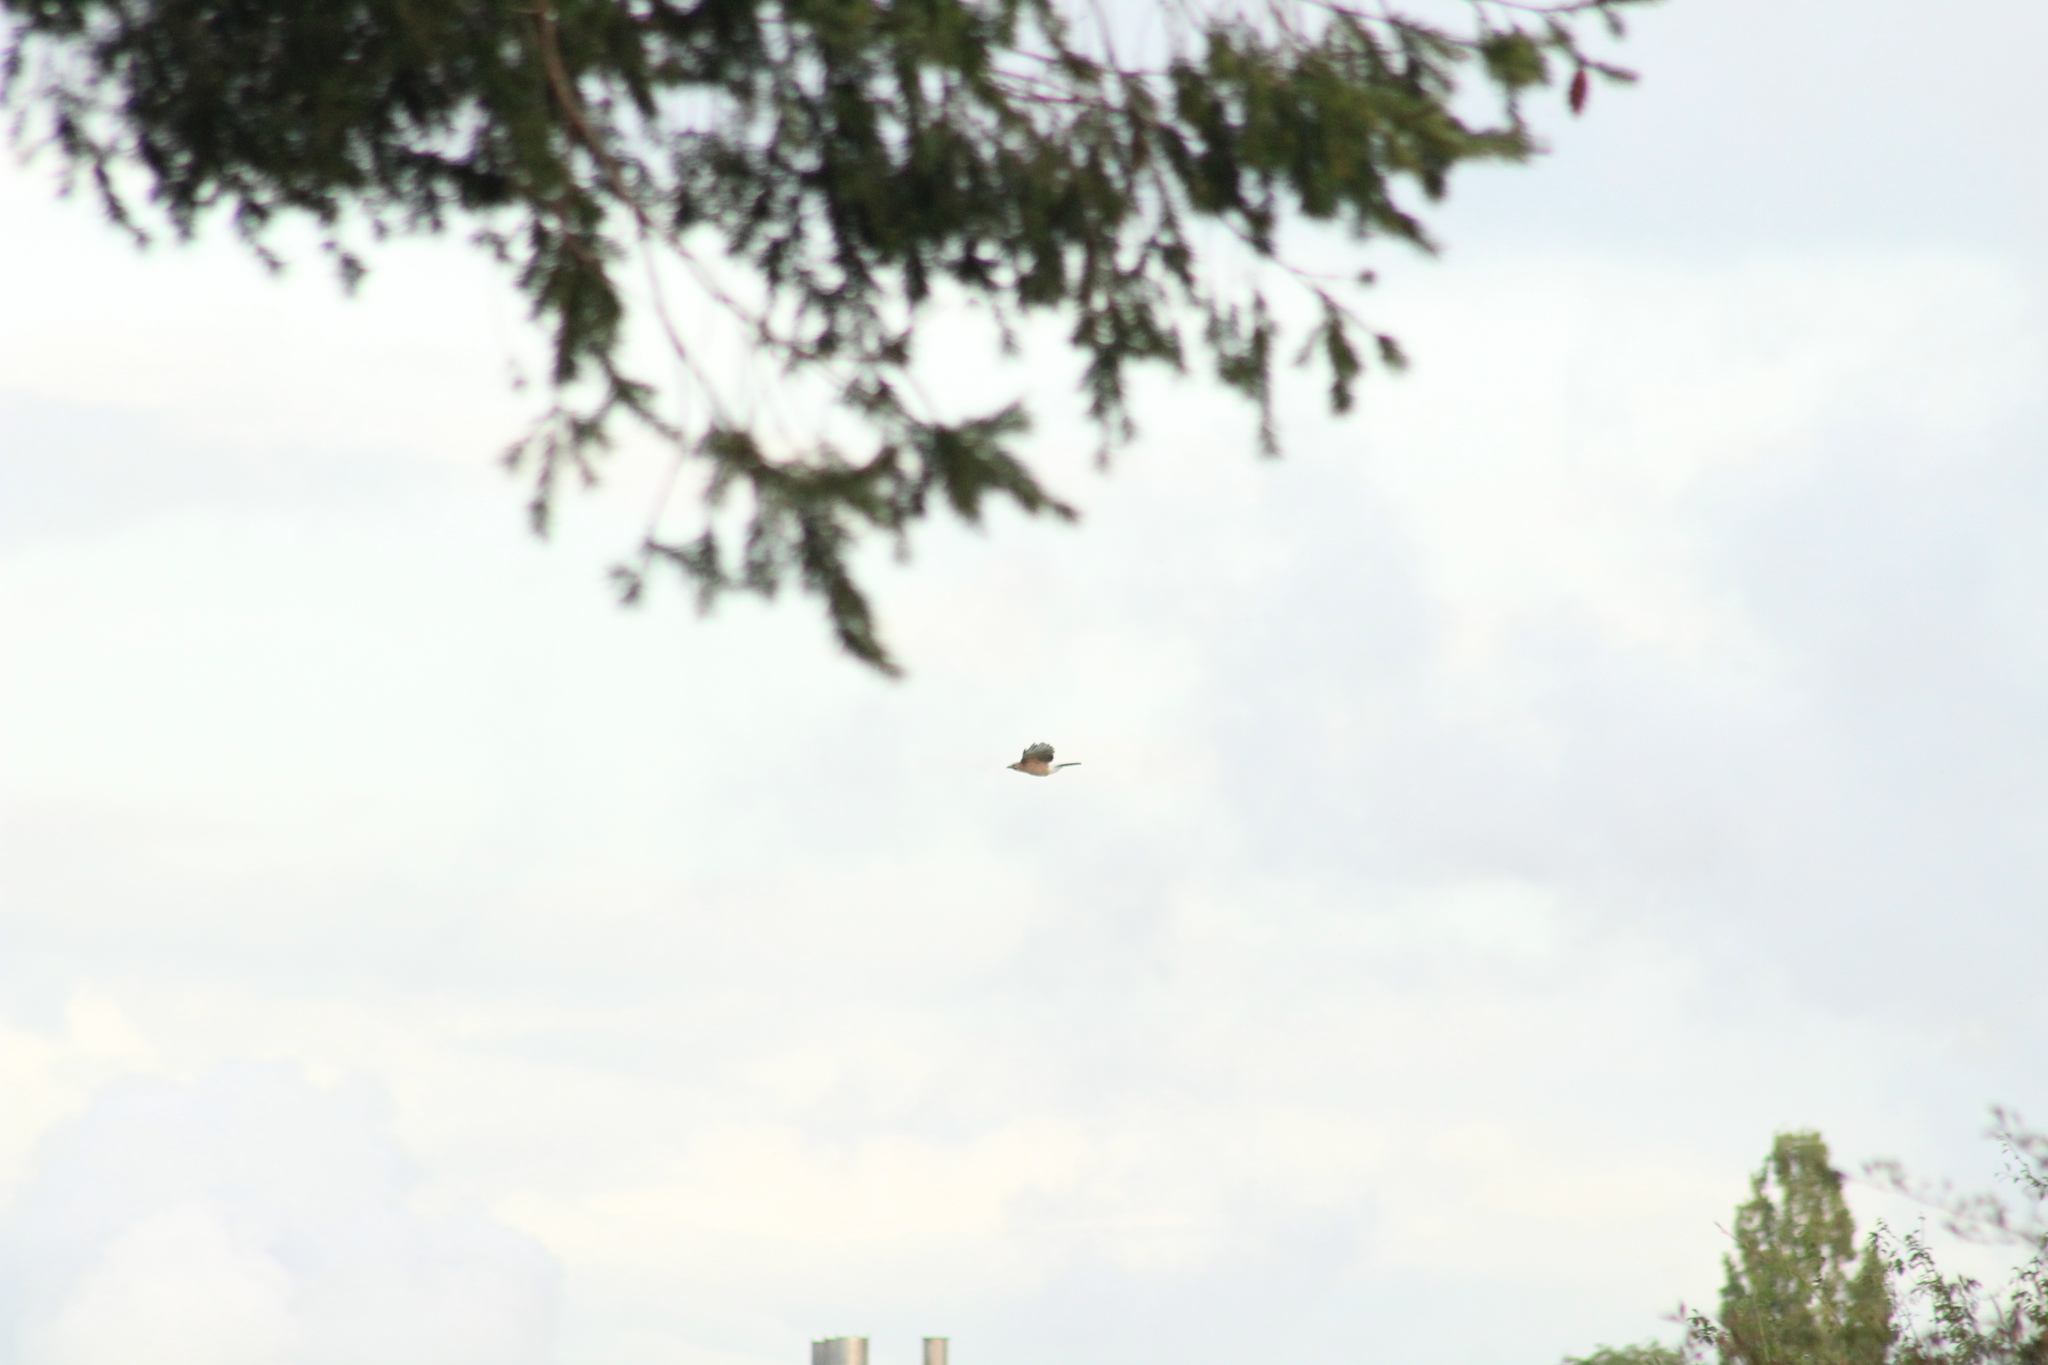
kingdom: Animalia
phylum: Chordata
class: Aves
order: Passeriformes
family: Corvidae
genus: Garrulus
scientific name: Garrulus glandarius
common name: Eurasian jay
